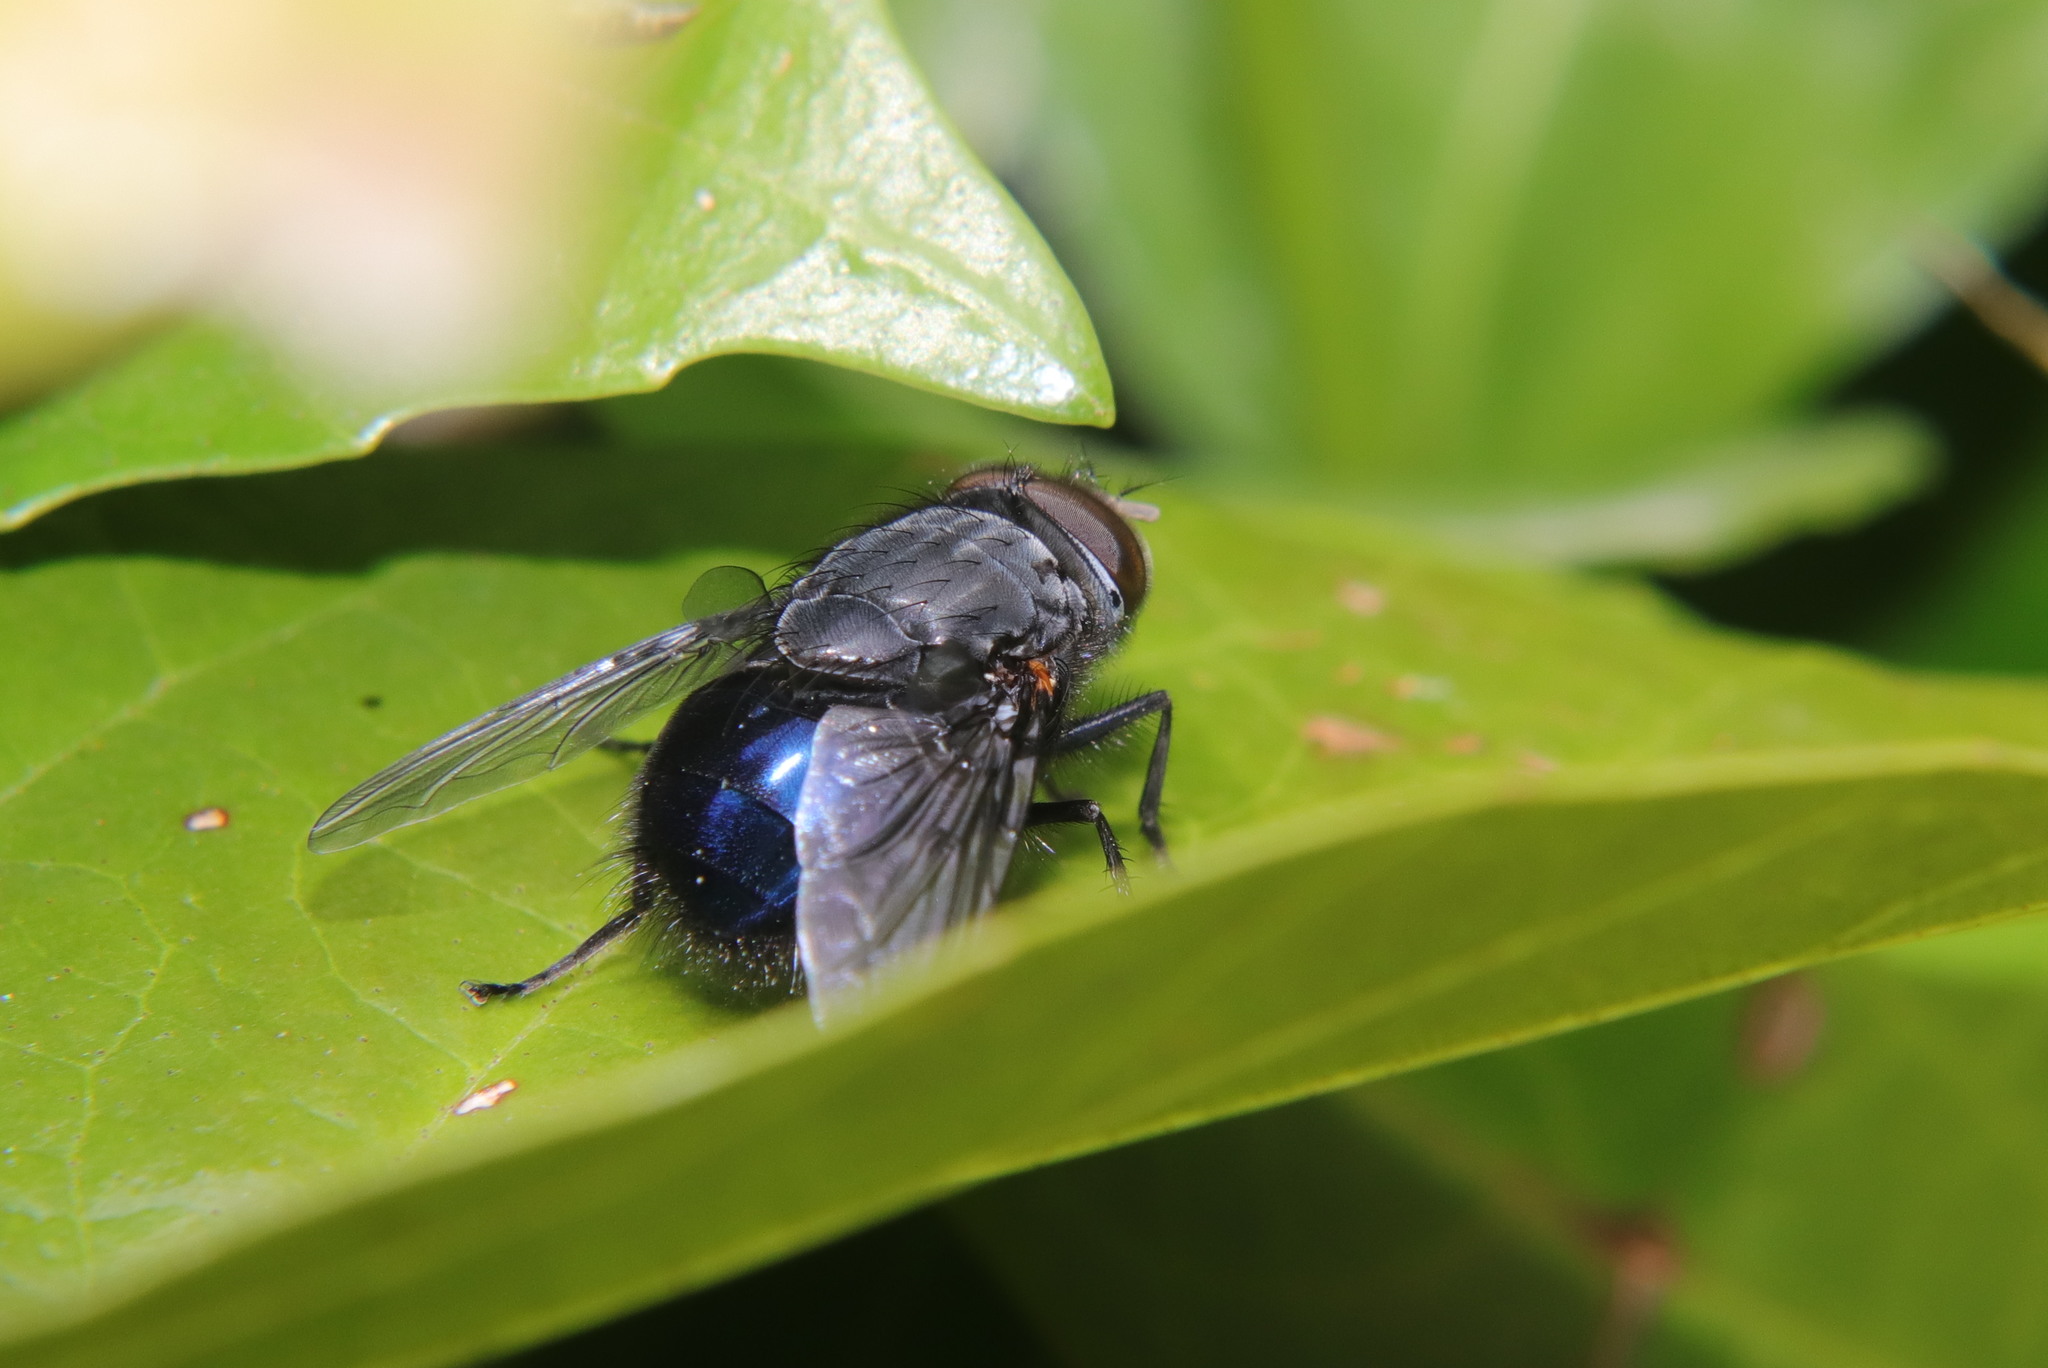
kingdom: Animalia
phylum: Arthropoda
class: Insecta
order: Diptera
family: Calliphoridae
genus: Calliphora
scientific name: Calliphora quadrimaculata
